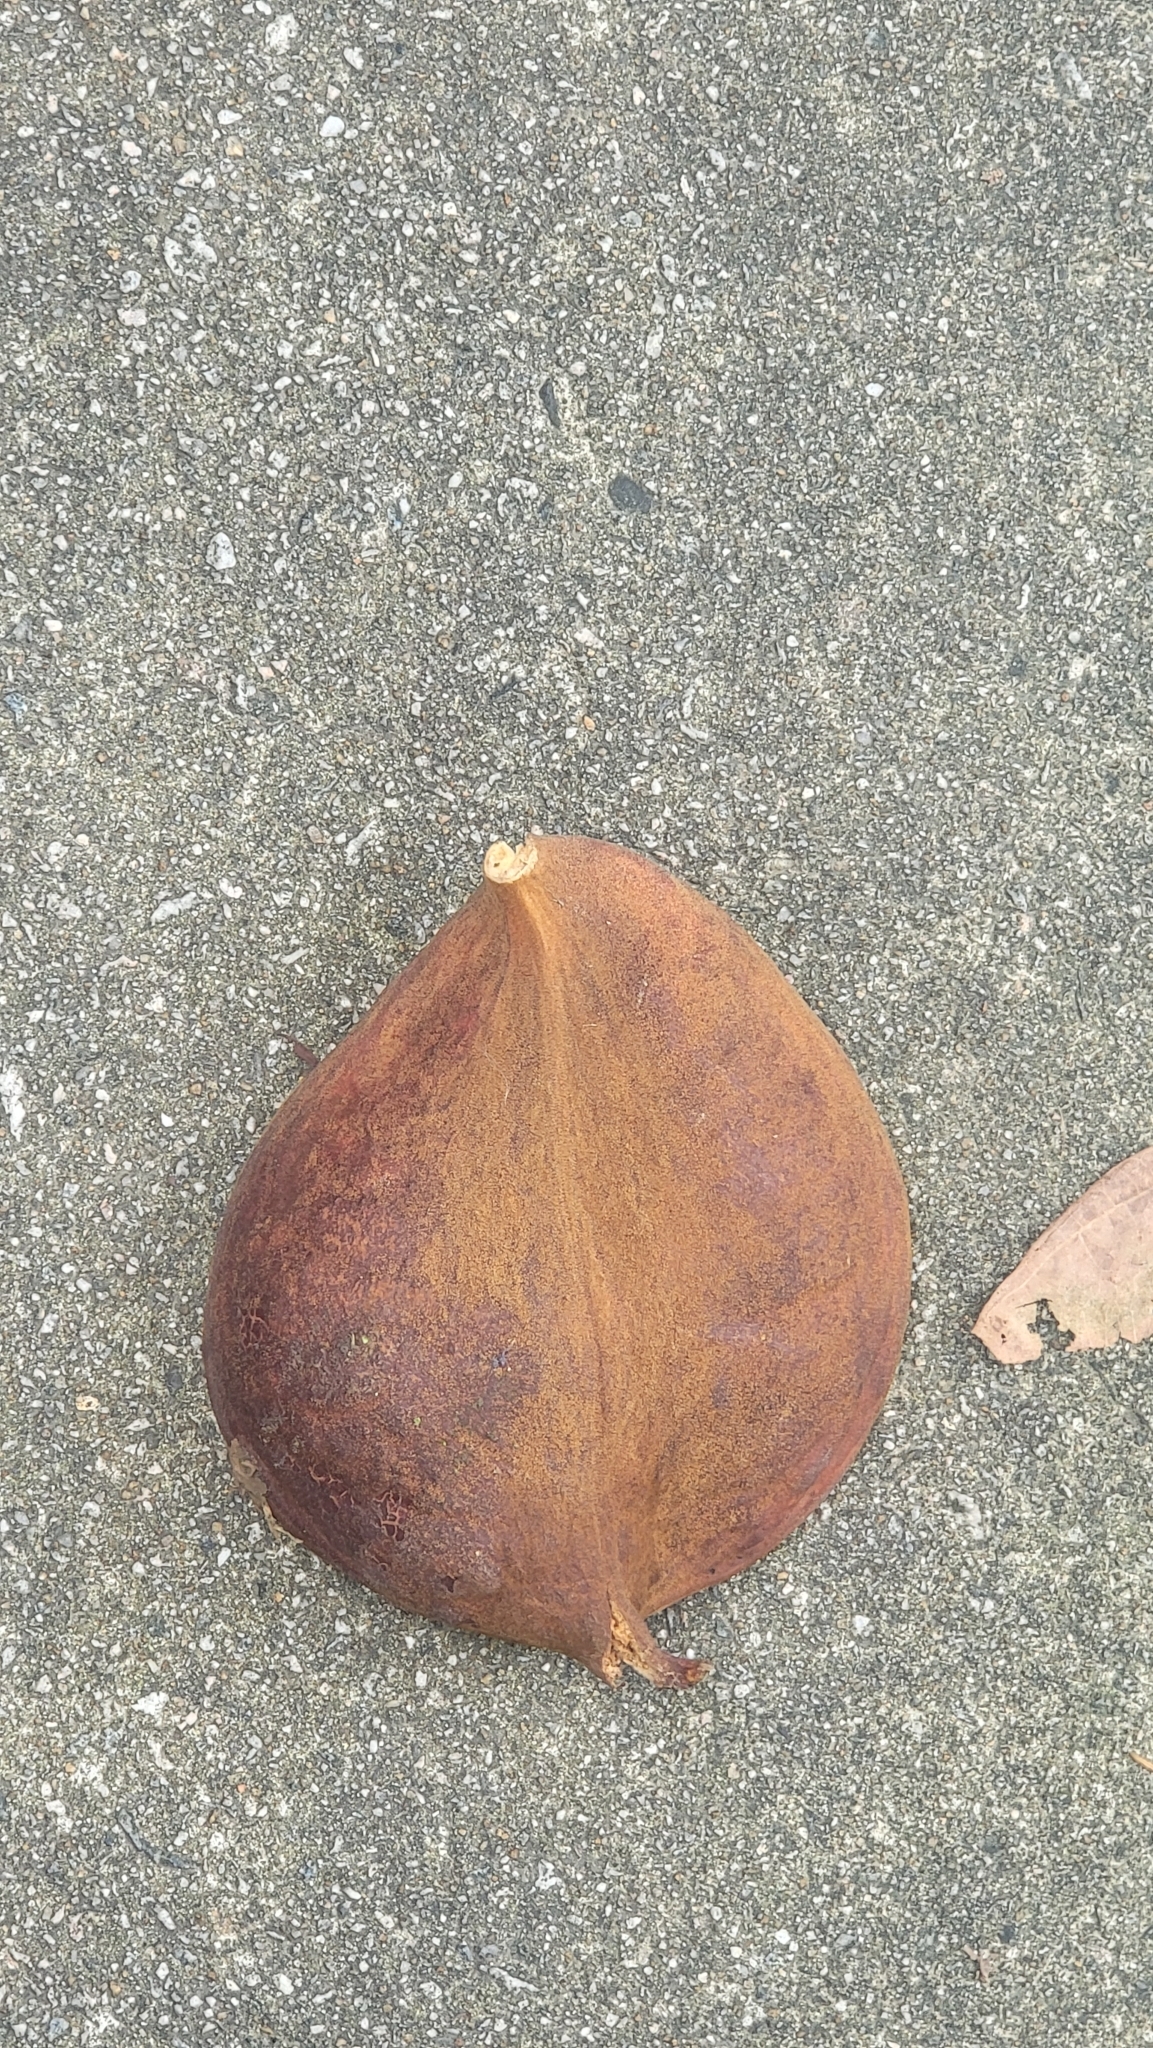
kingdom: Plantae
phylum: Tracheophyta
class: Magnoliopsida
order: Malvales
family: Malvaceae
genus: Cola
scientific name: Cola gigantea
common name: Giant cola
